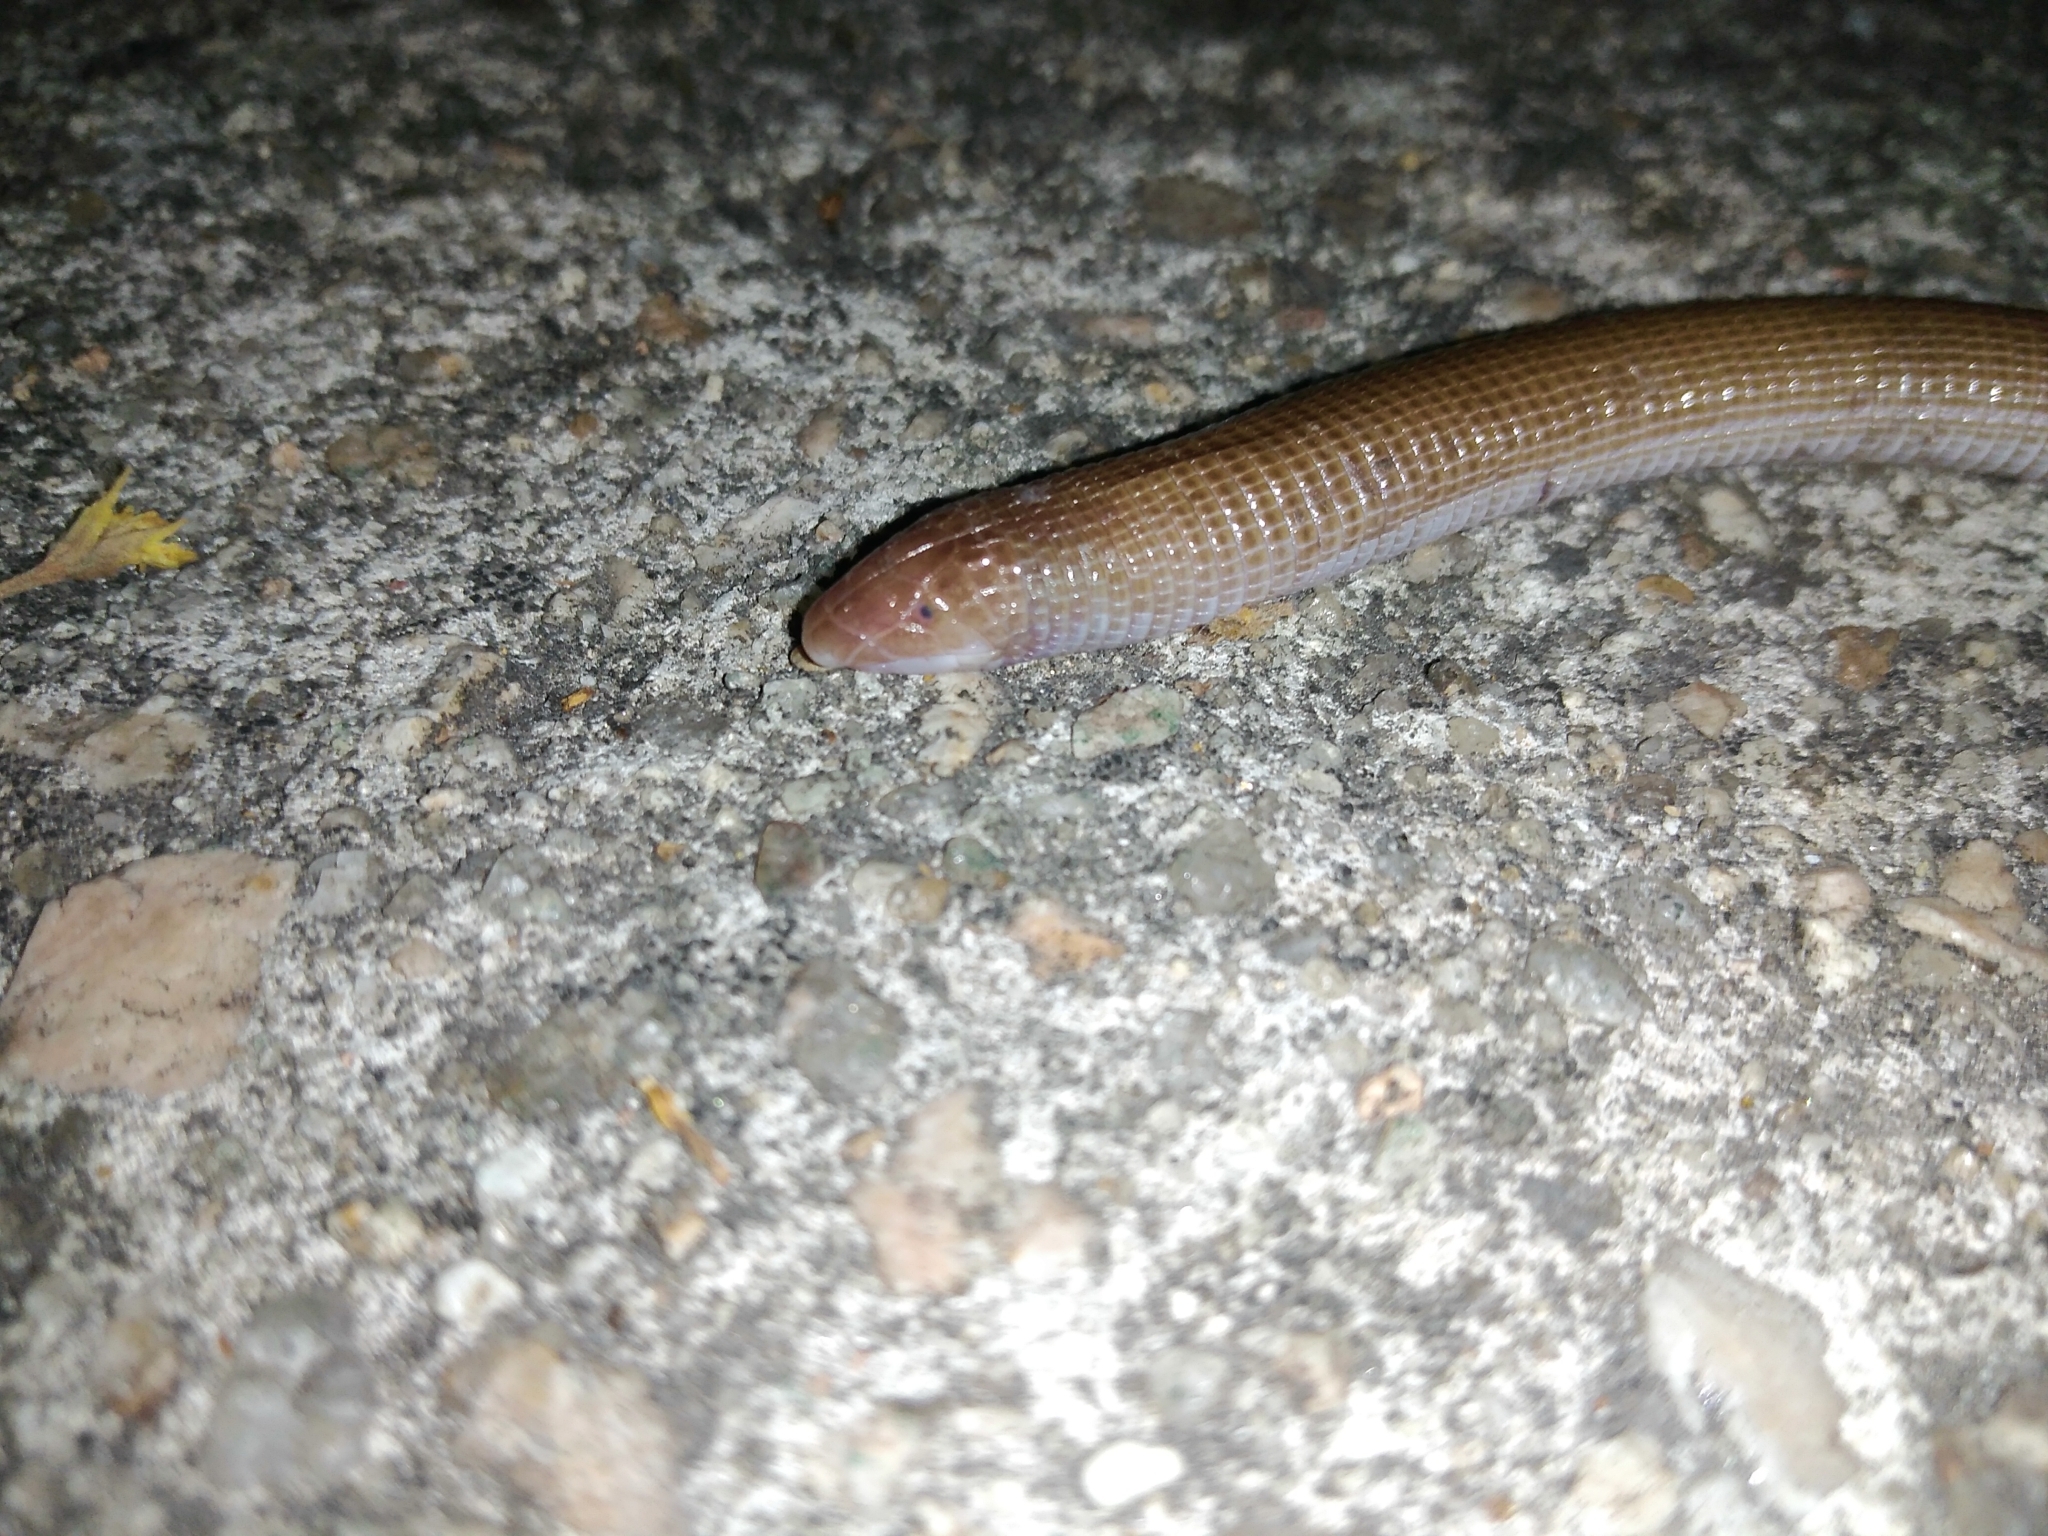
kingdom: Animalia
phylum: Chordata
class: Squamata
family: Amphisbaenidae
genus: Amphisbaena
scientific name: Amphisbaena darwinii
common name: Darwin's ringed worm lizard
